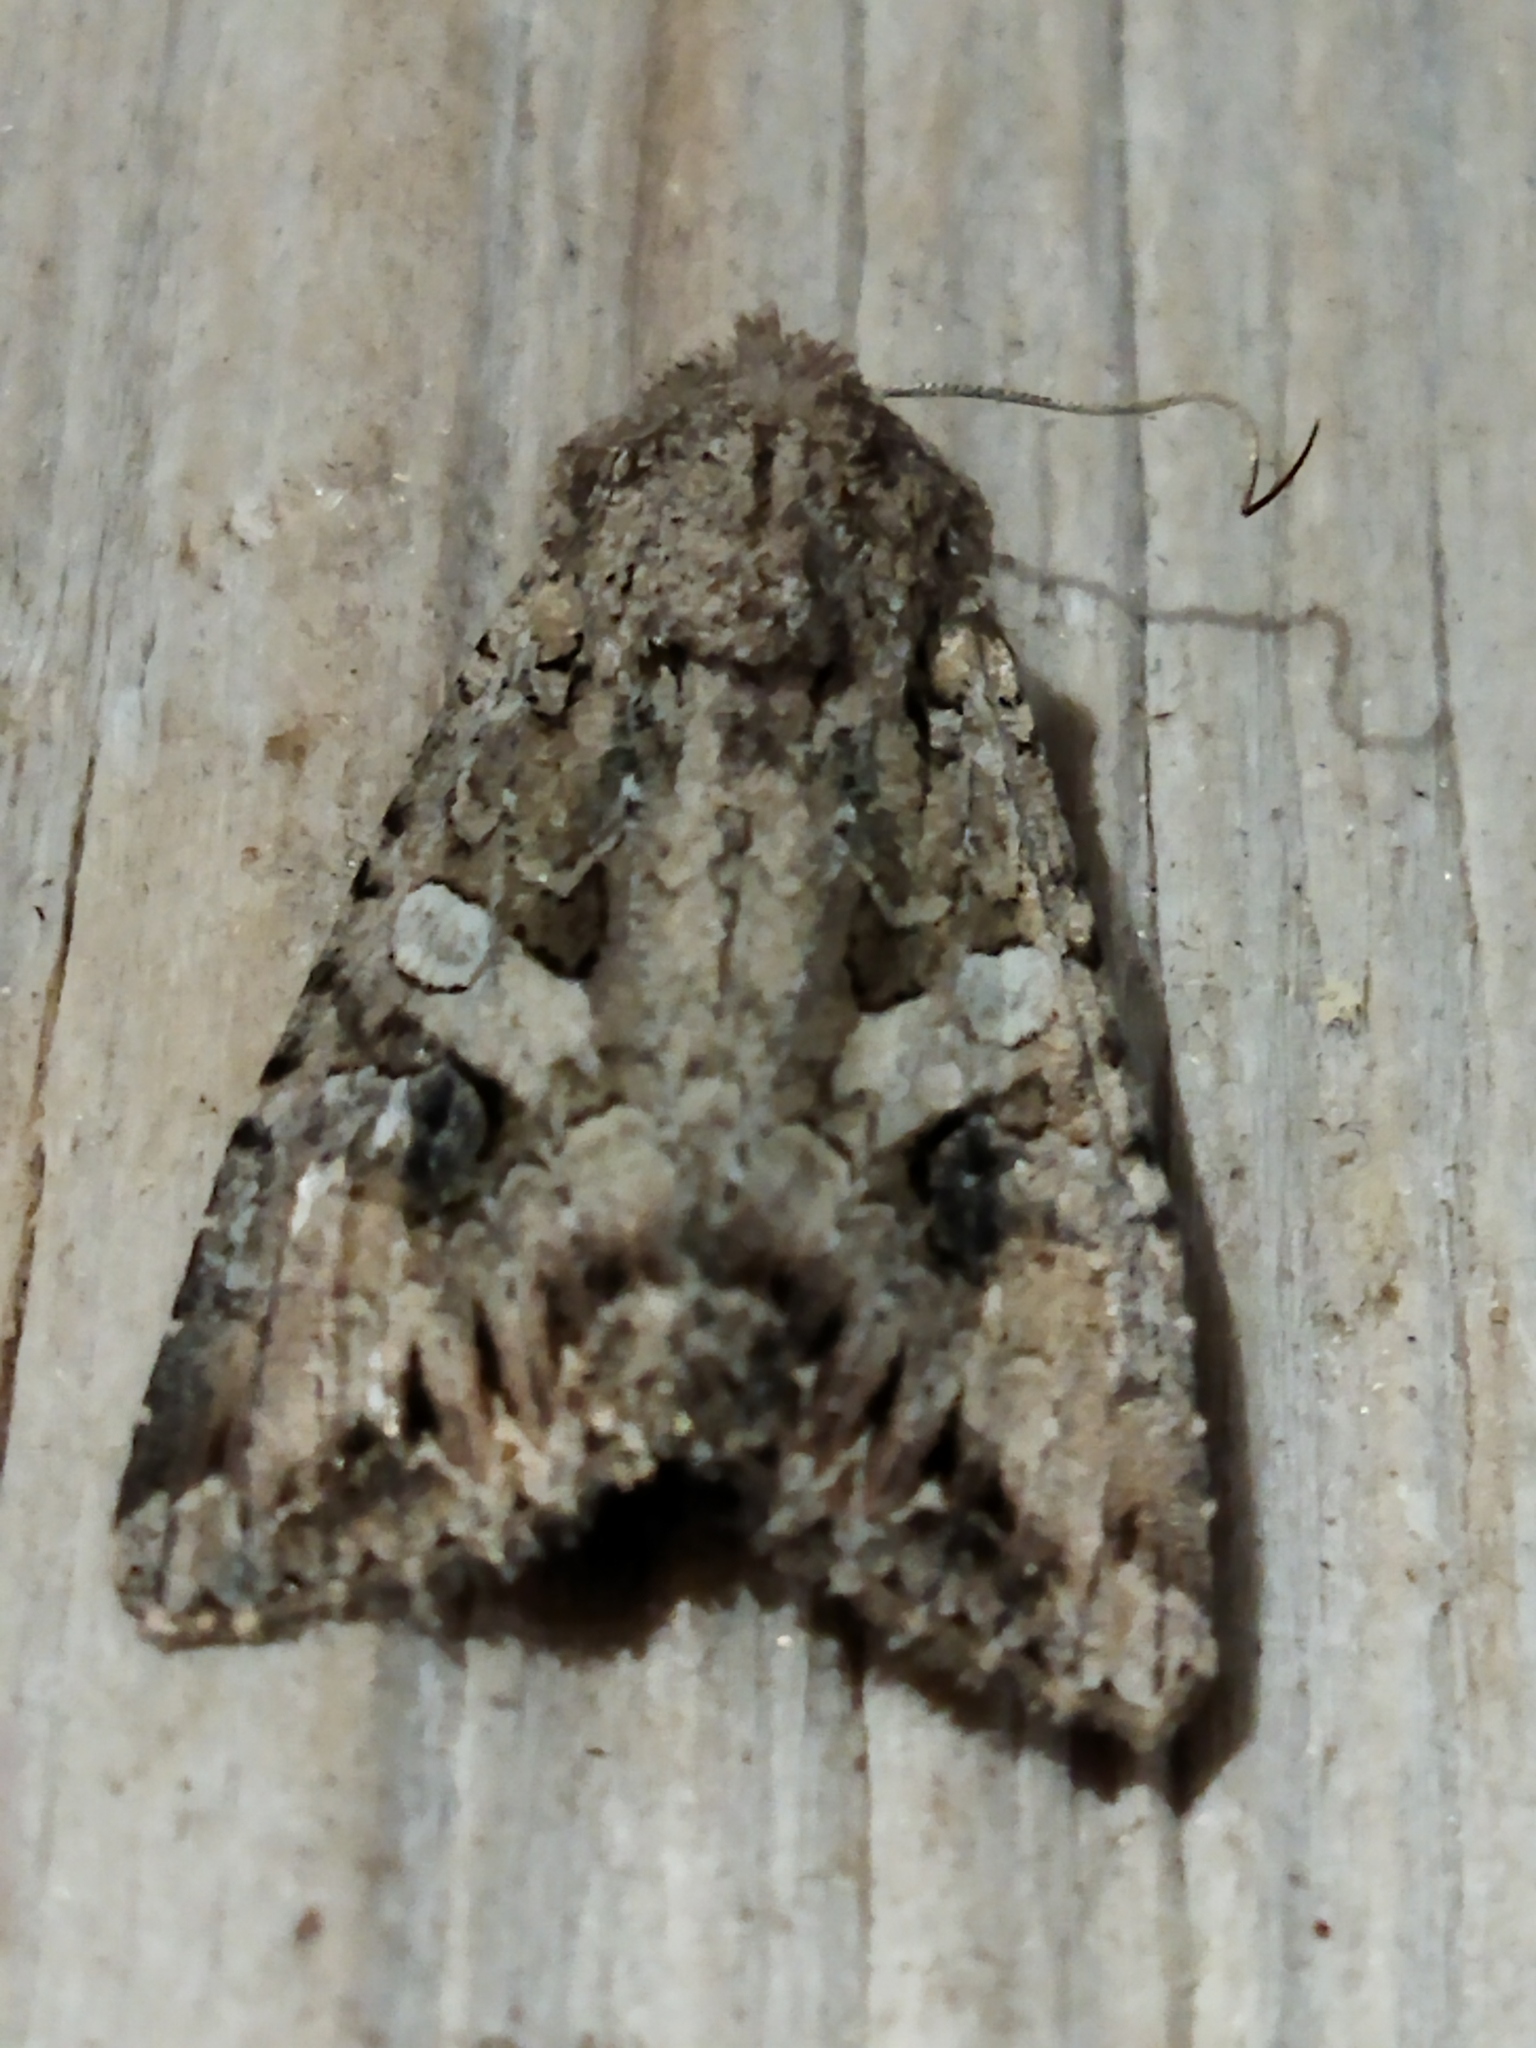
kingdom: Animalia
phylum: Arthropoda
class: Insecta
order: Lepidoptera
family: Noctuidae
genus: Anarta
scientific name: Anarta trifolii
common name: Clover cutworm moth
